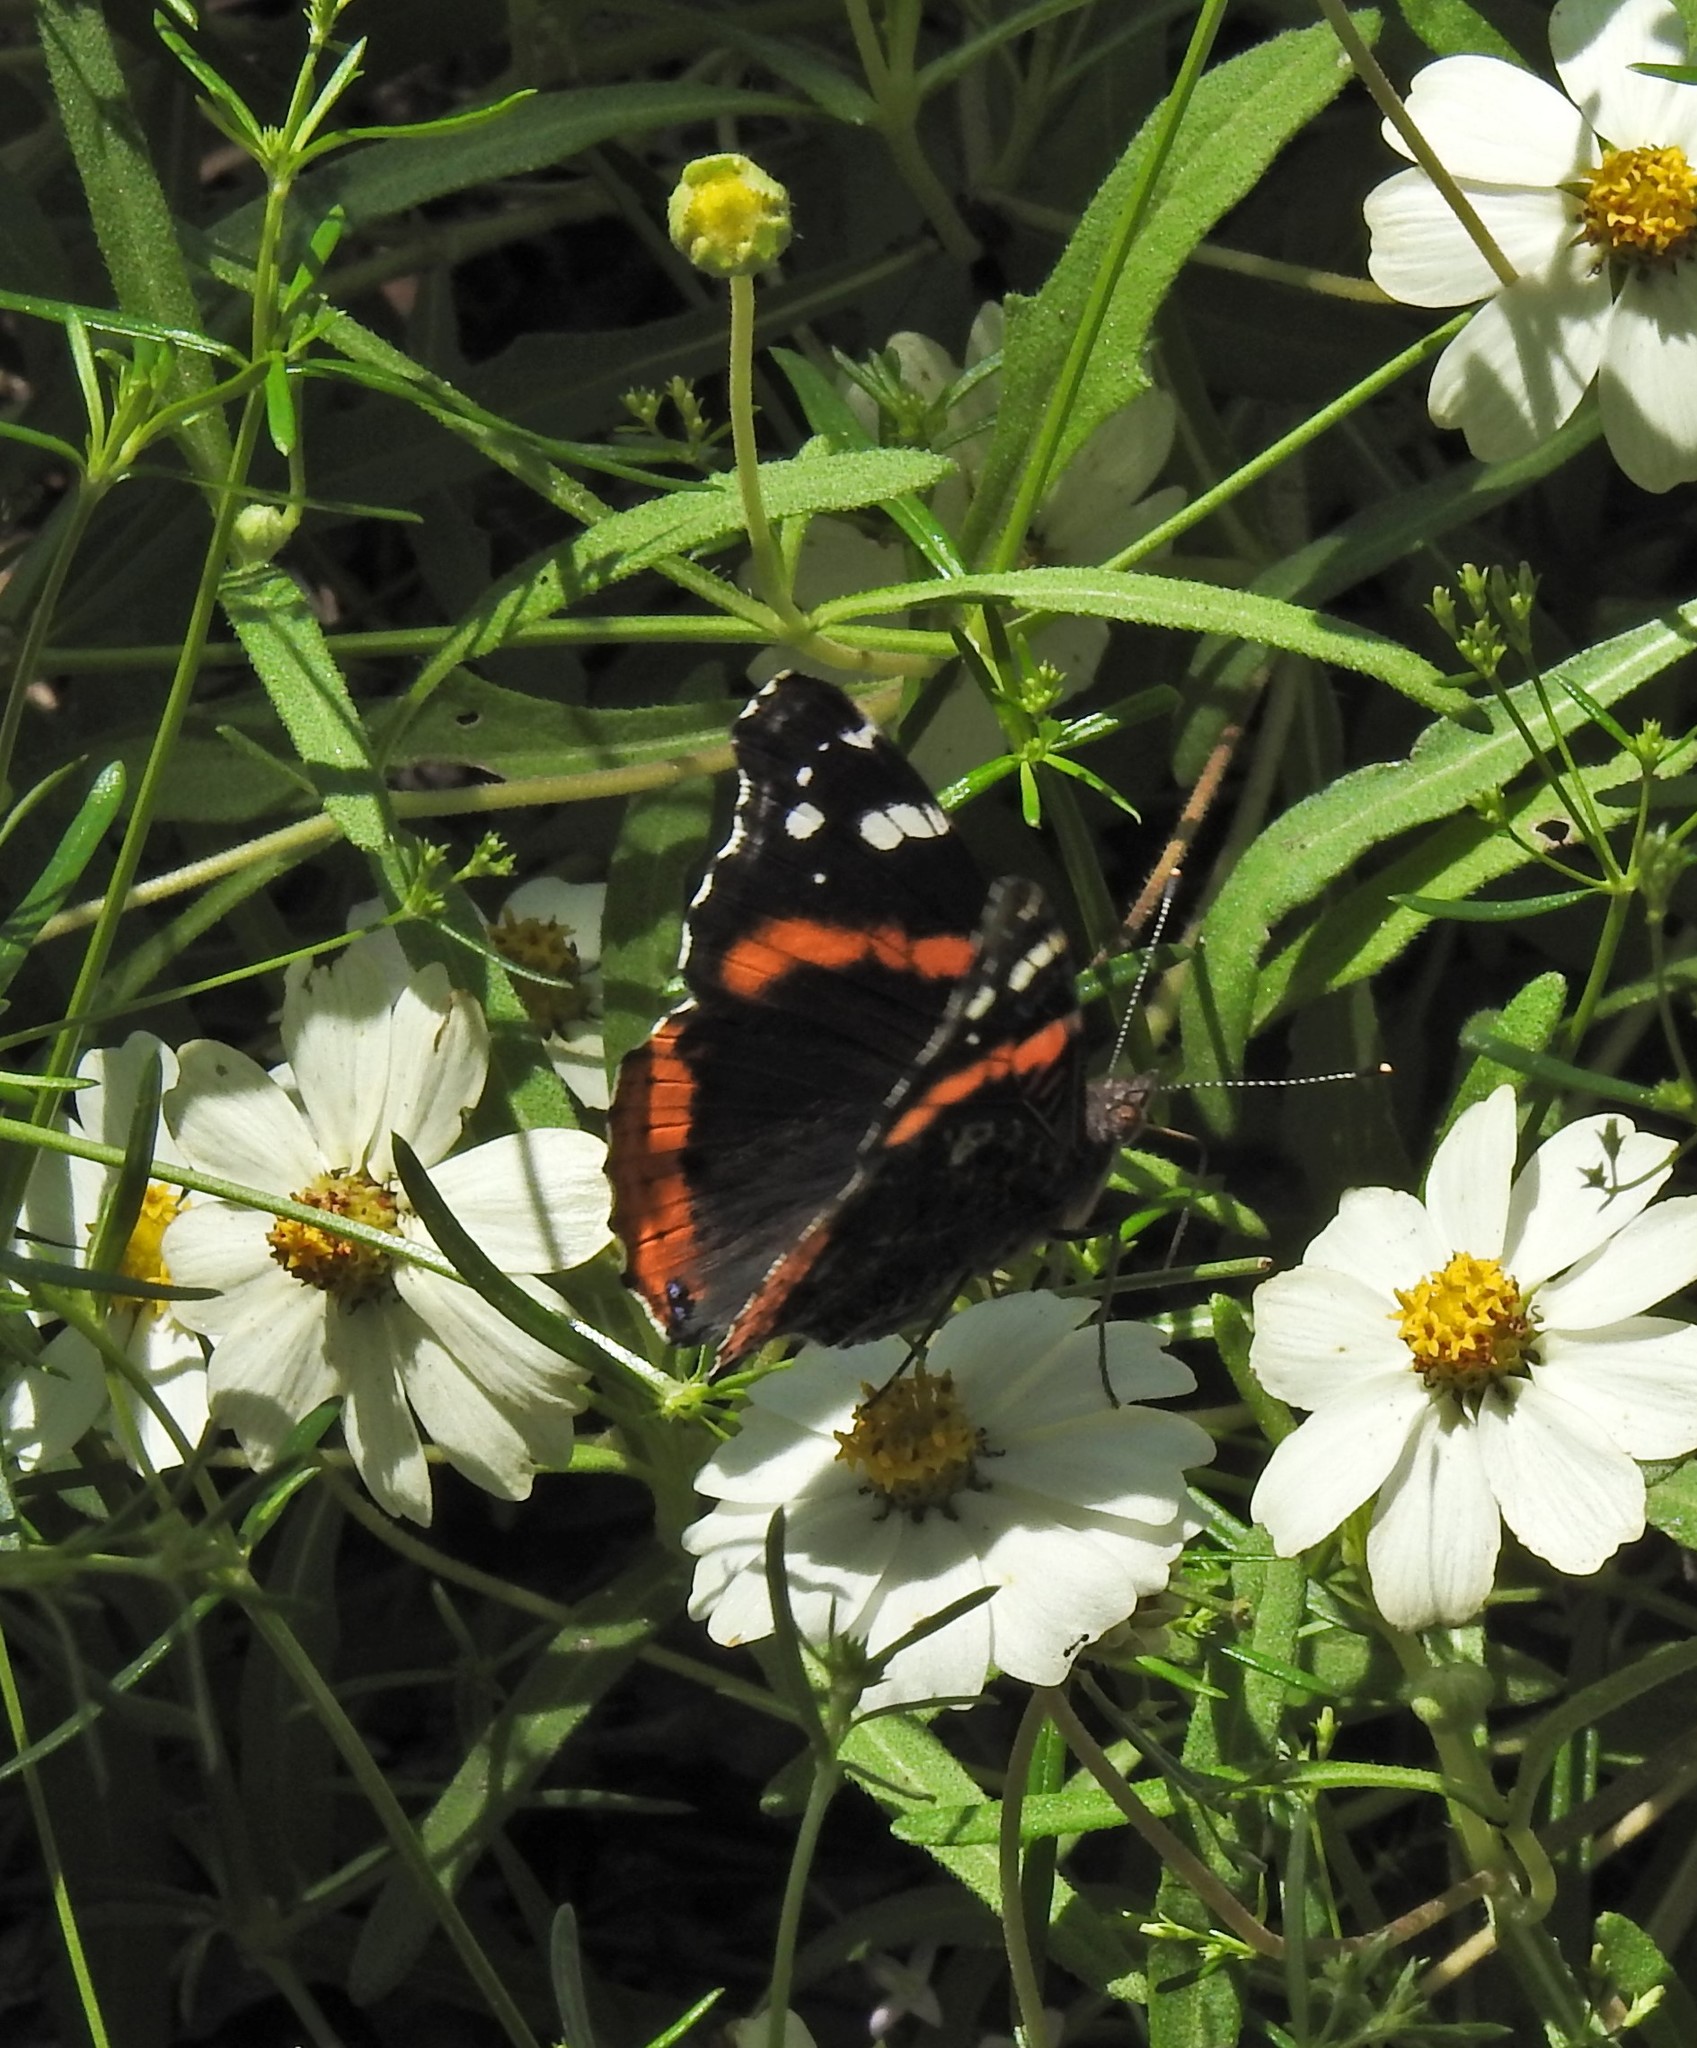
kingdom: Animalia
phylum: Arthropoda
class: Insecta
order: Lepidoptera
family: Nymphalidae
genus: Vanessa
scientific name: Vanessa atalanta
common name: Red admiral
